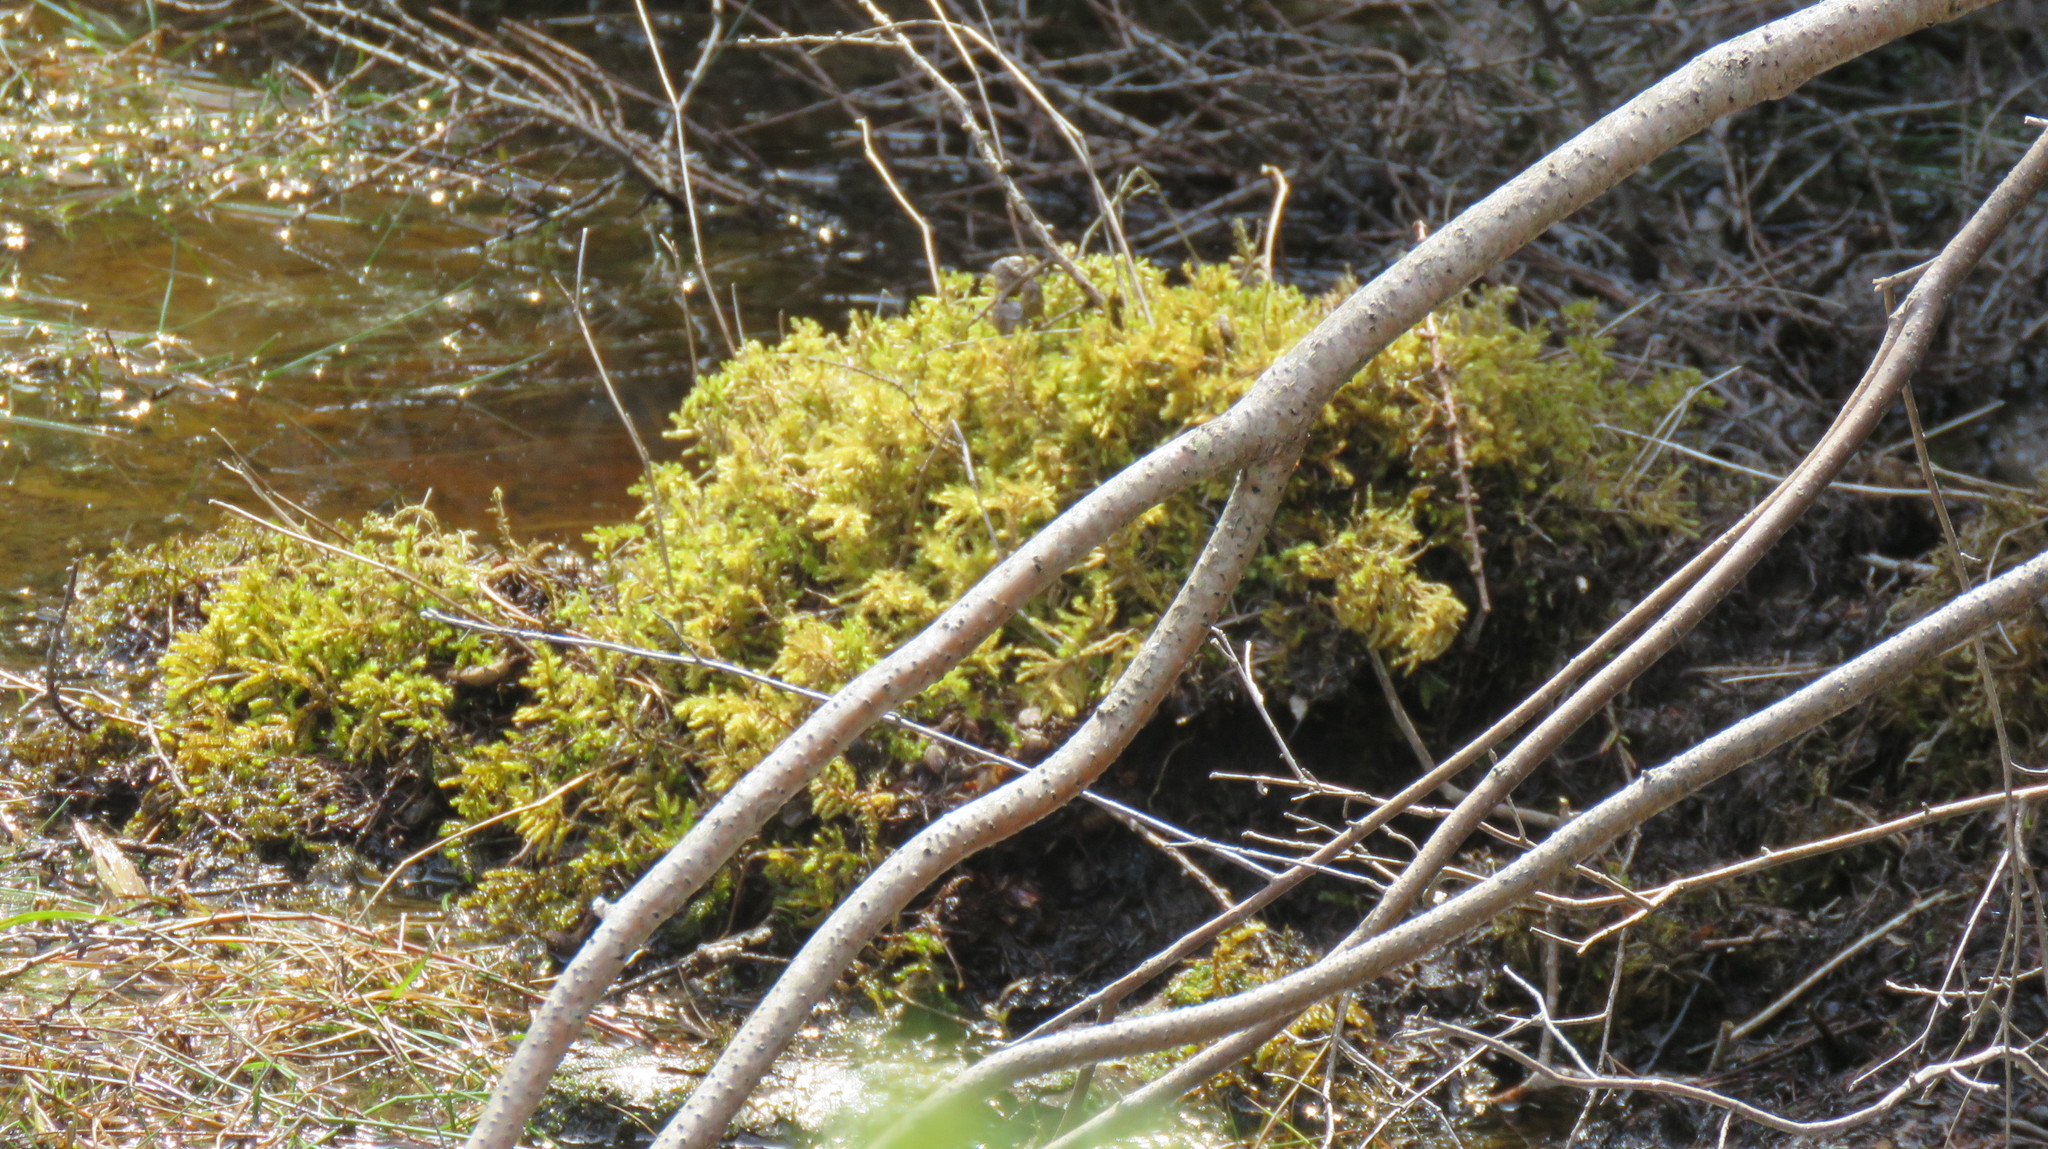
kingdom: Plantae
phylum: Bryophyta
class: Bryopsida
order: Hypnales
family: Hylocomiaceae
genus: Hylocomiadelphus
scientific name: Hylocomiadelphus triquetrus
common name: Rough goose neck moss
